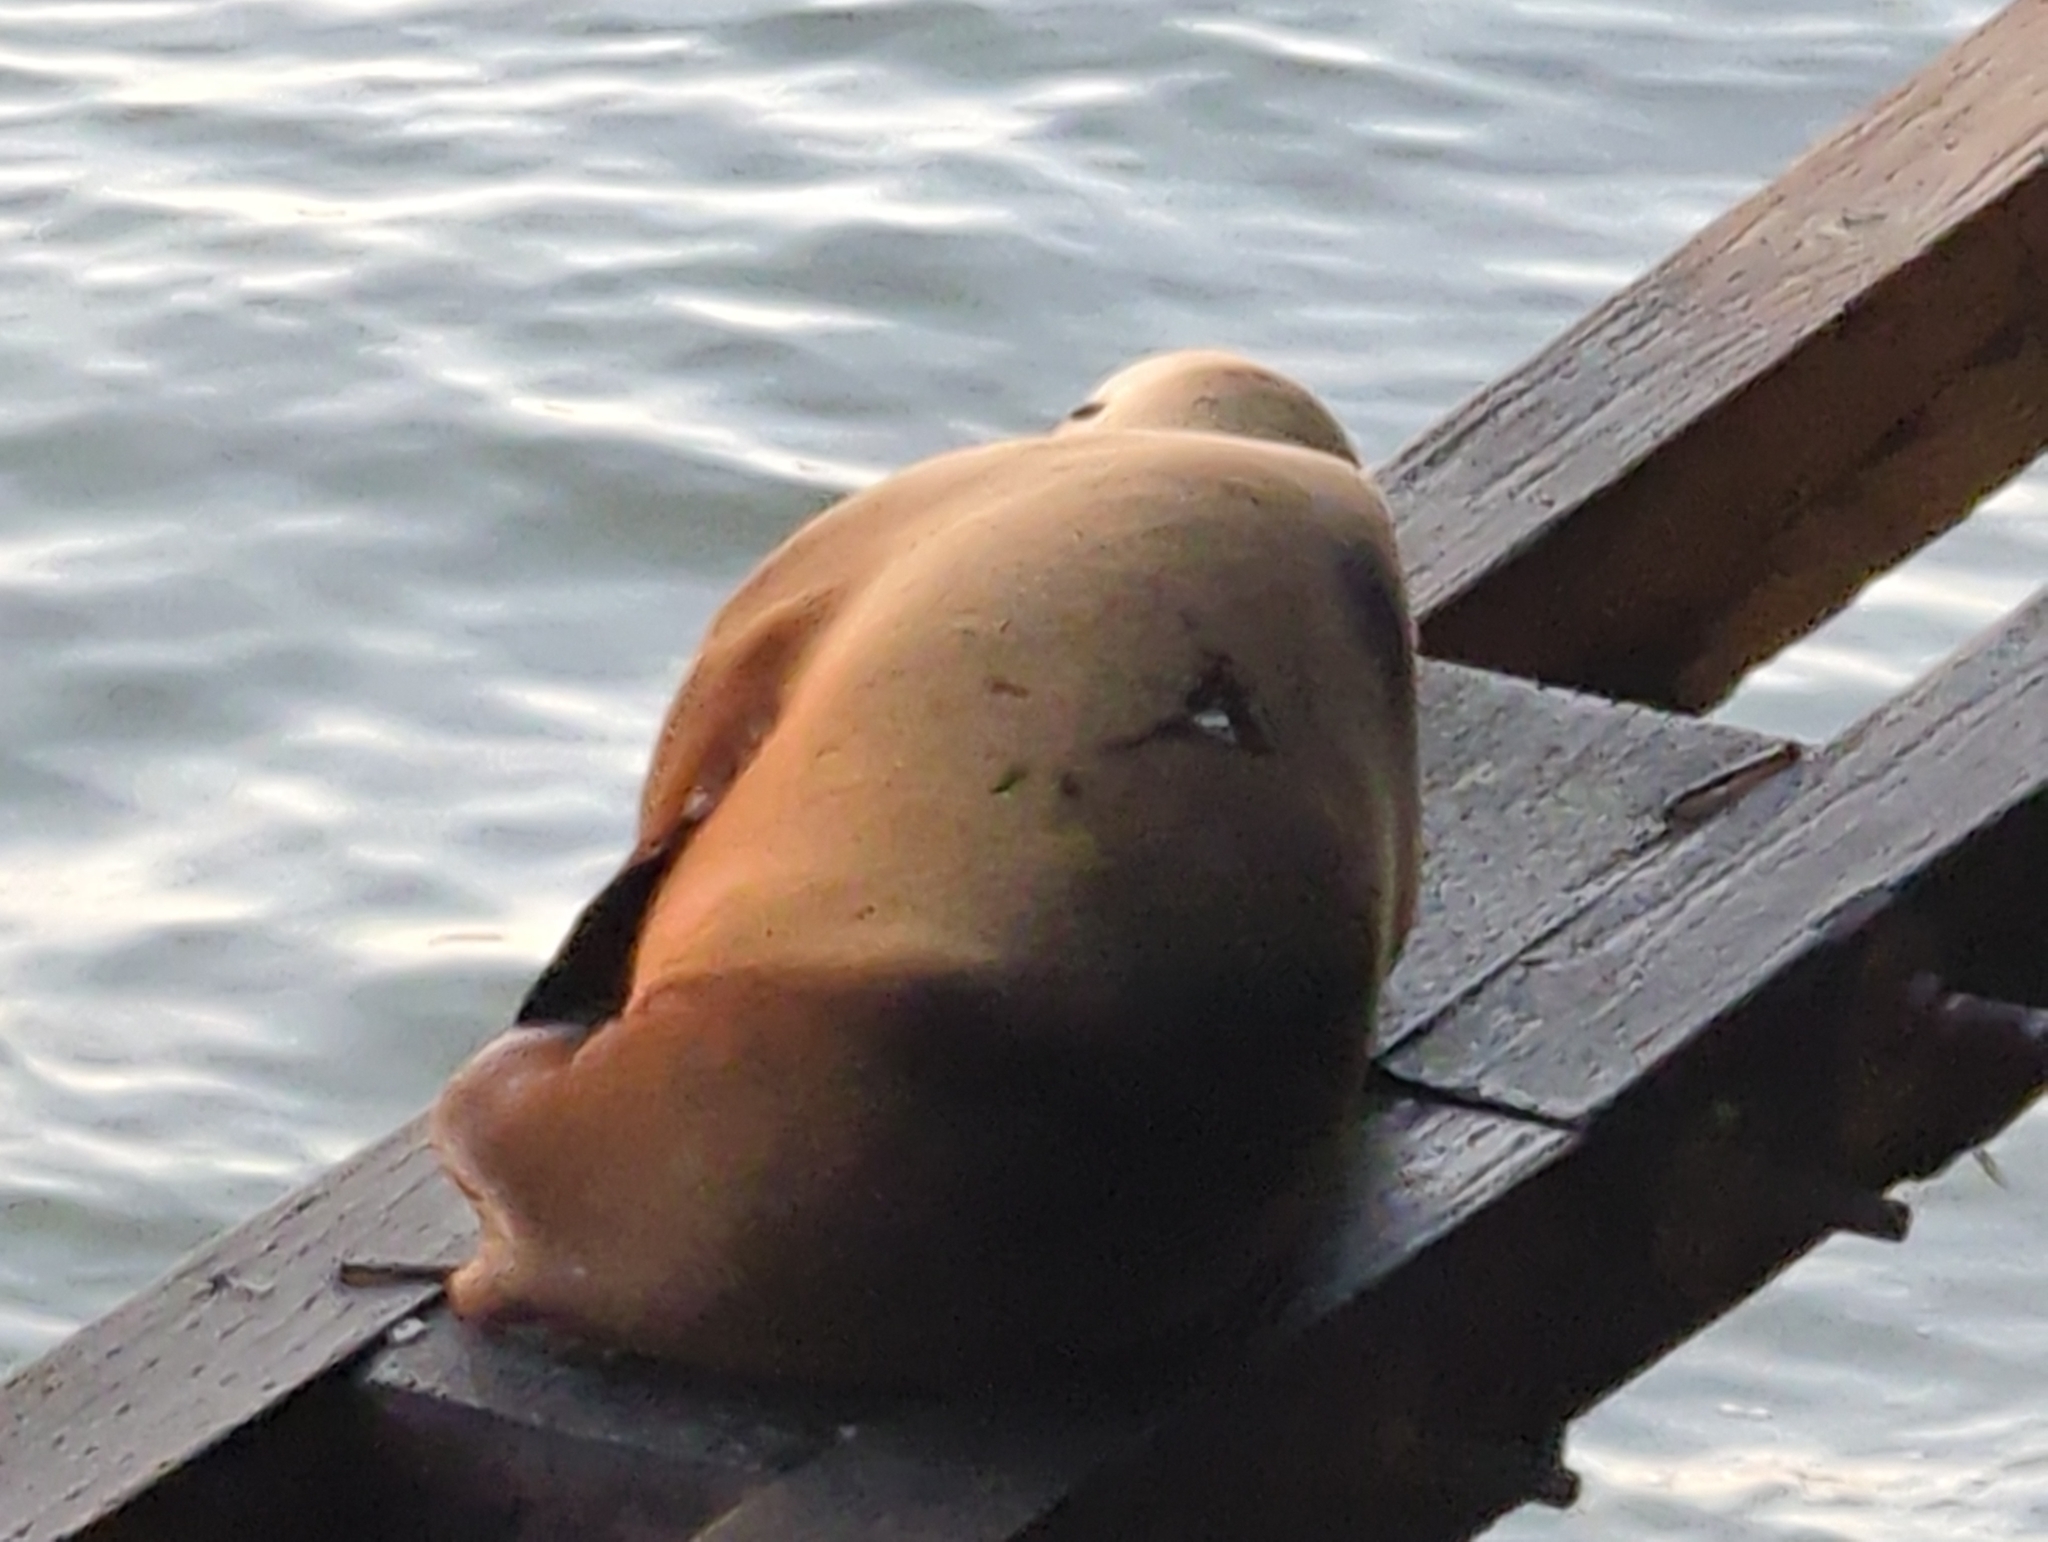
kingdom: Animalia
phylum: Chordata
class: Mammalia
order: Carnivora
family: Otariidae
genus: Zalophus
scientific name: Zalophus californianus
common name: California sea lion
